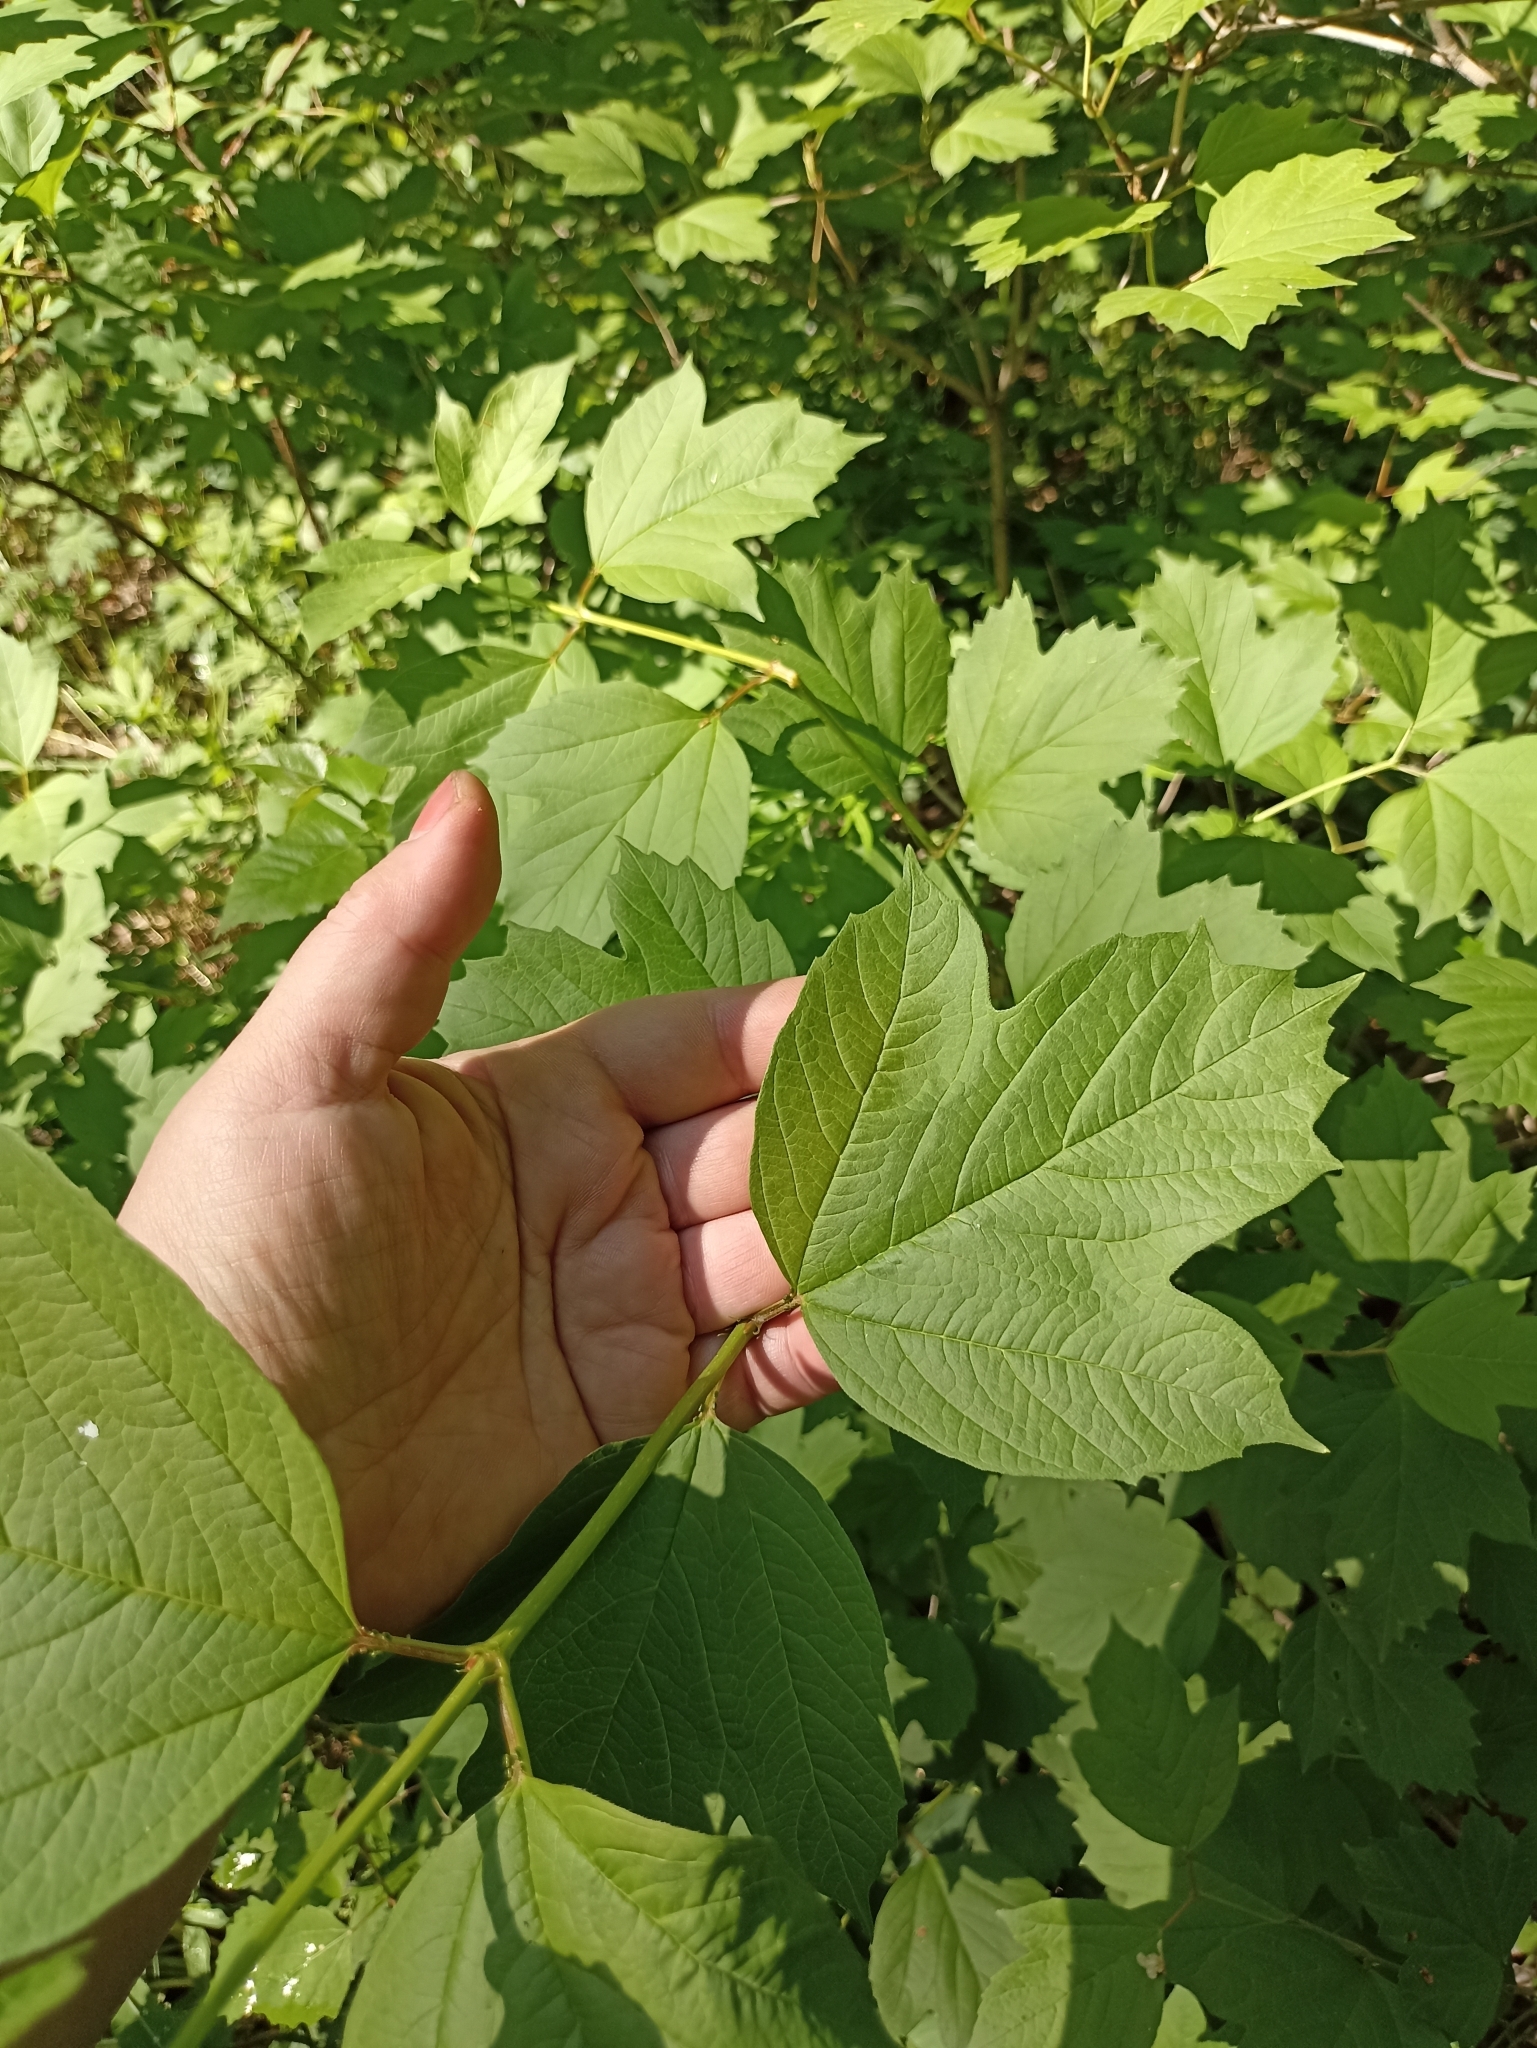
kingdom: Plantae
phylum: Tracheophyta
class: Magnoliopsida
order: Dipsacales
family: Viburnaceae
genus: Viburnum
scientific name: Viburnum opulus
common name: Guelder-rose
